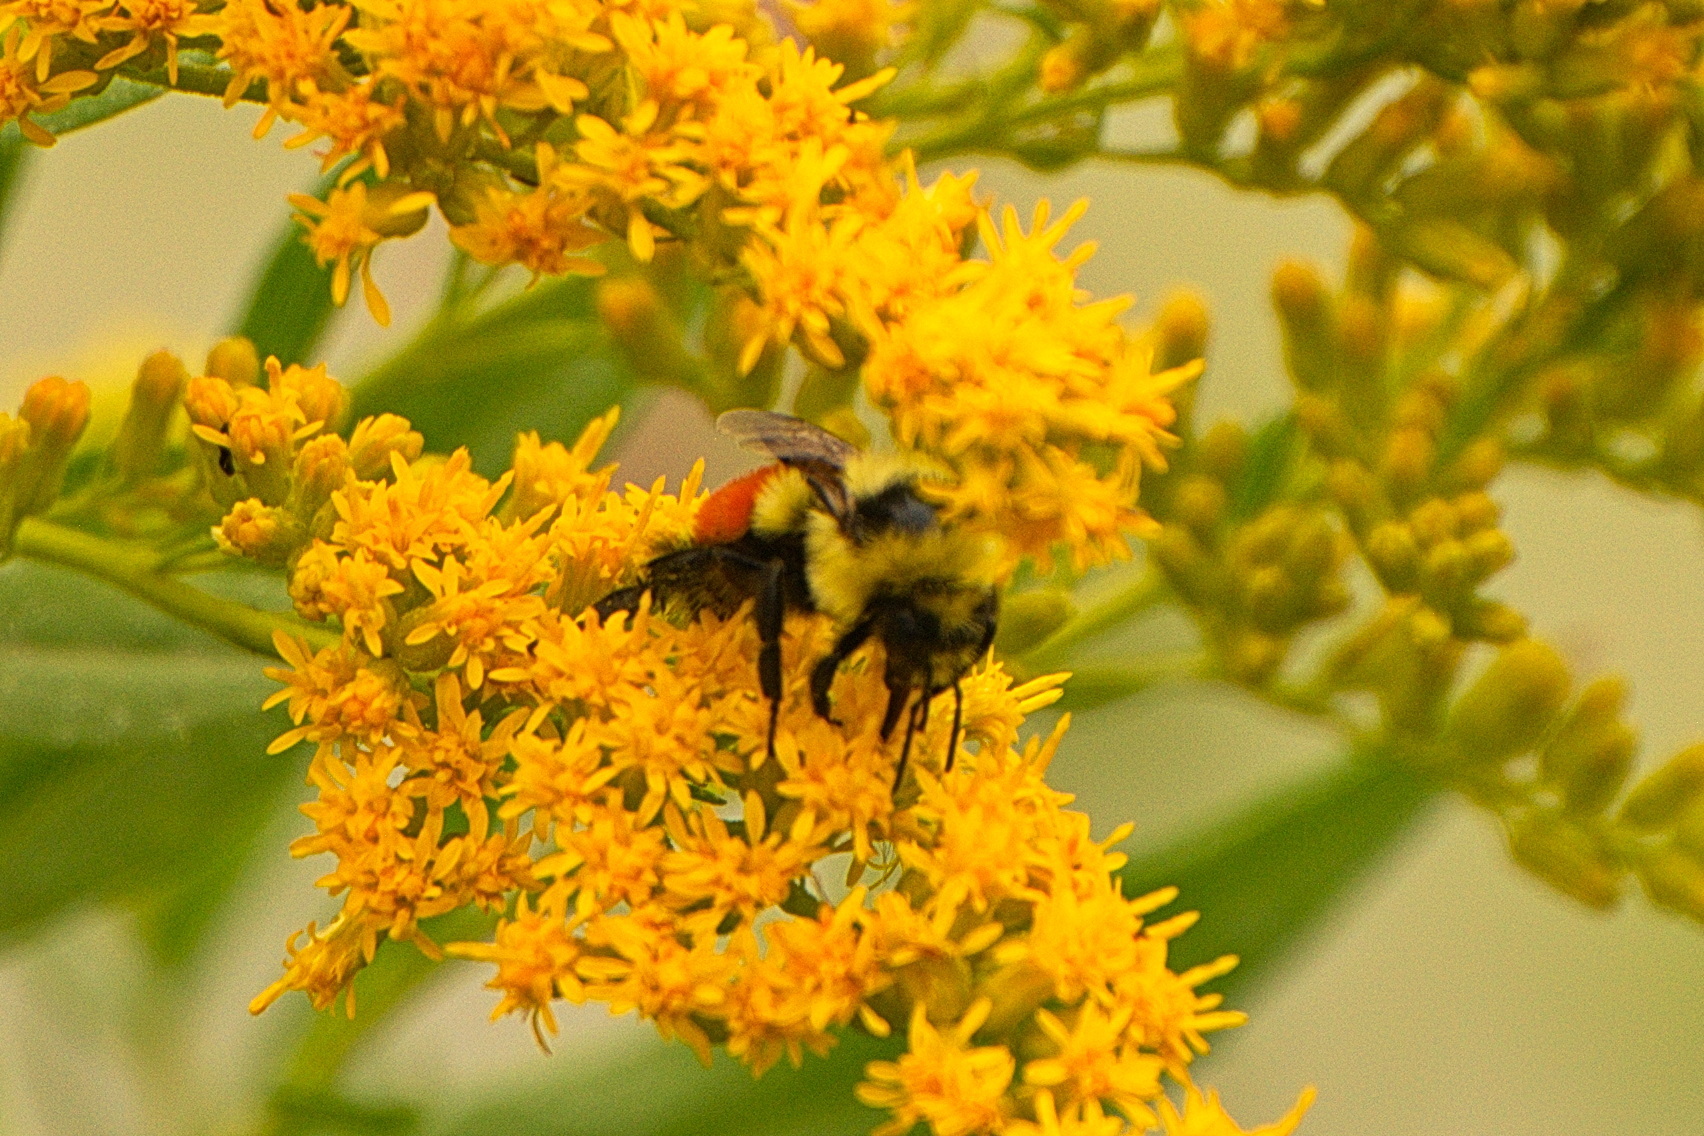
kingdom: Animalia
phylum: Arthropoda
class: Insecta
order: Hymenoptera
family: Apidae
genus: Bombus
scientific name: Bombus huntii
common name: Hunt bumble bee
